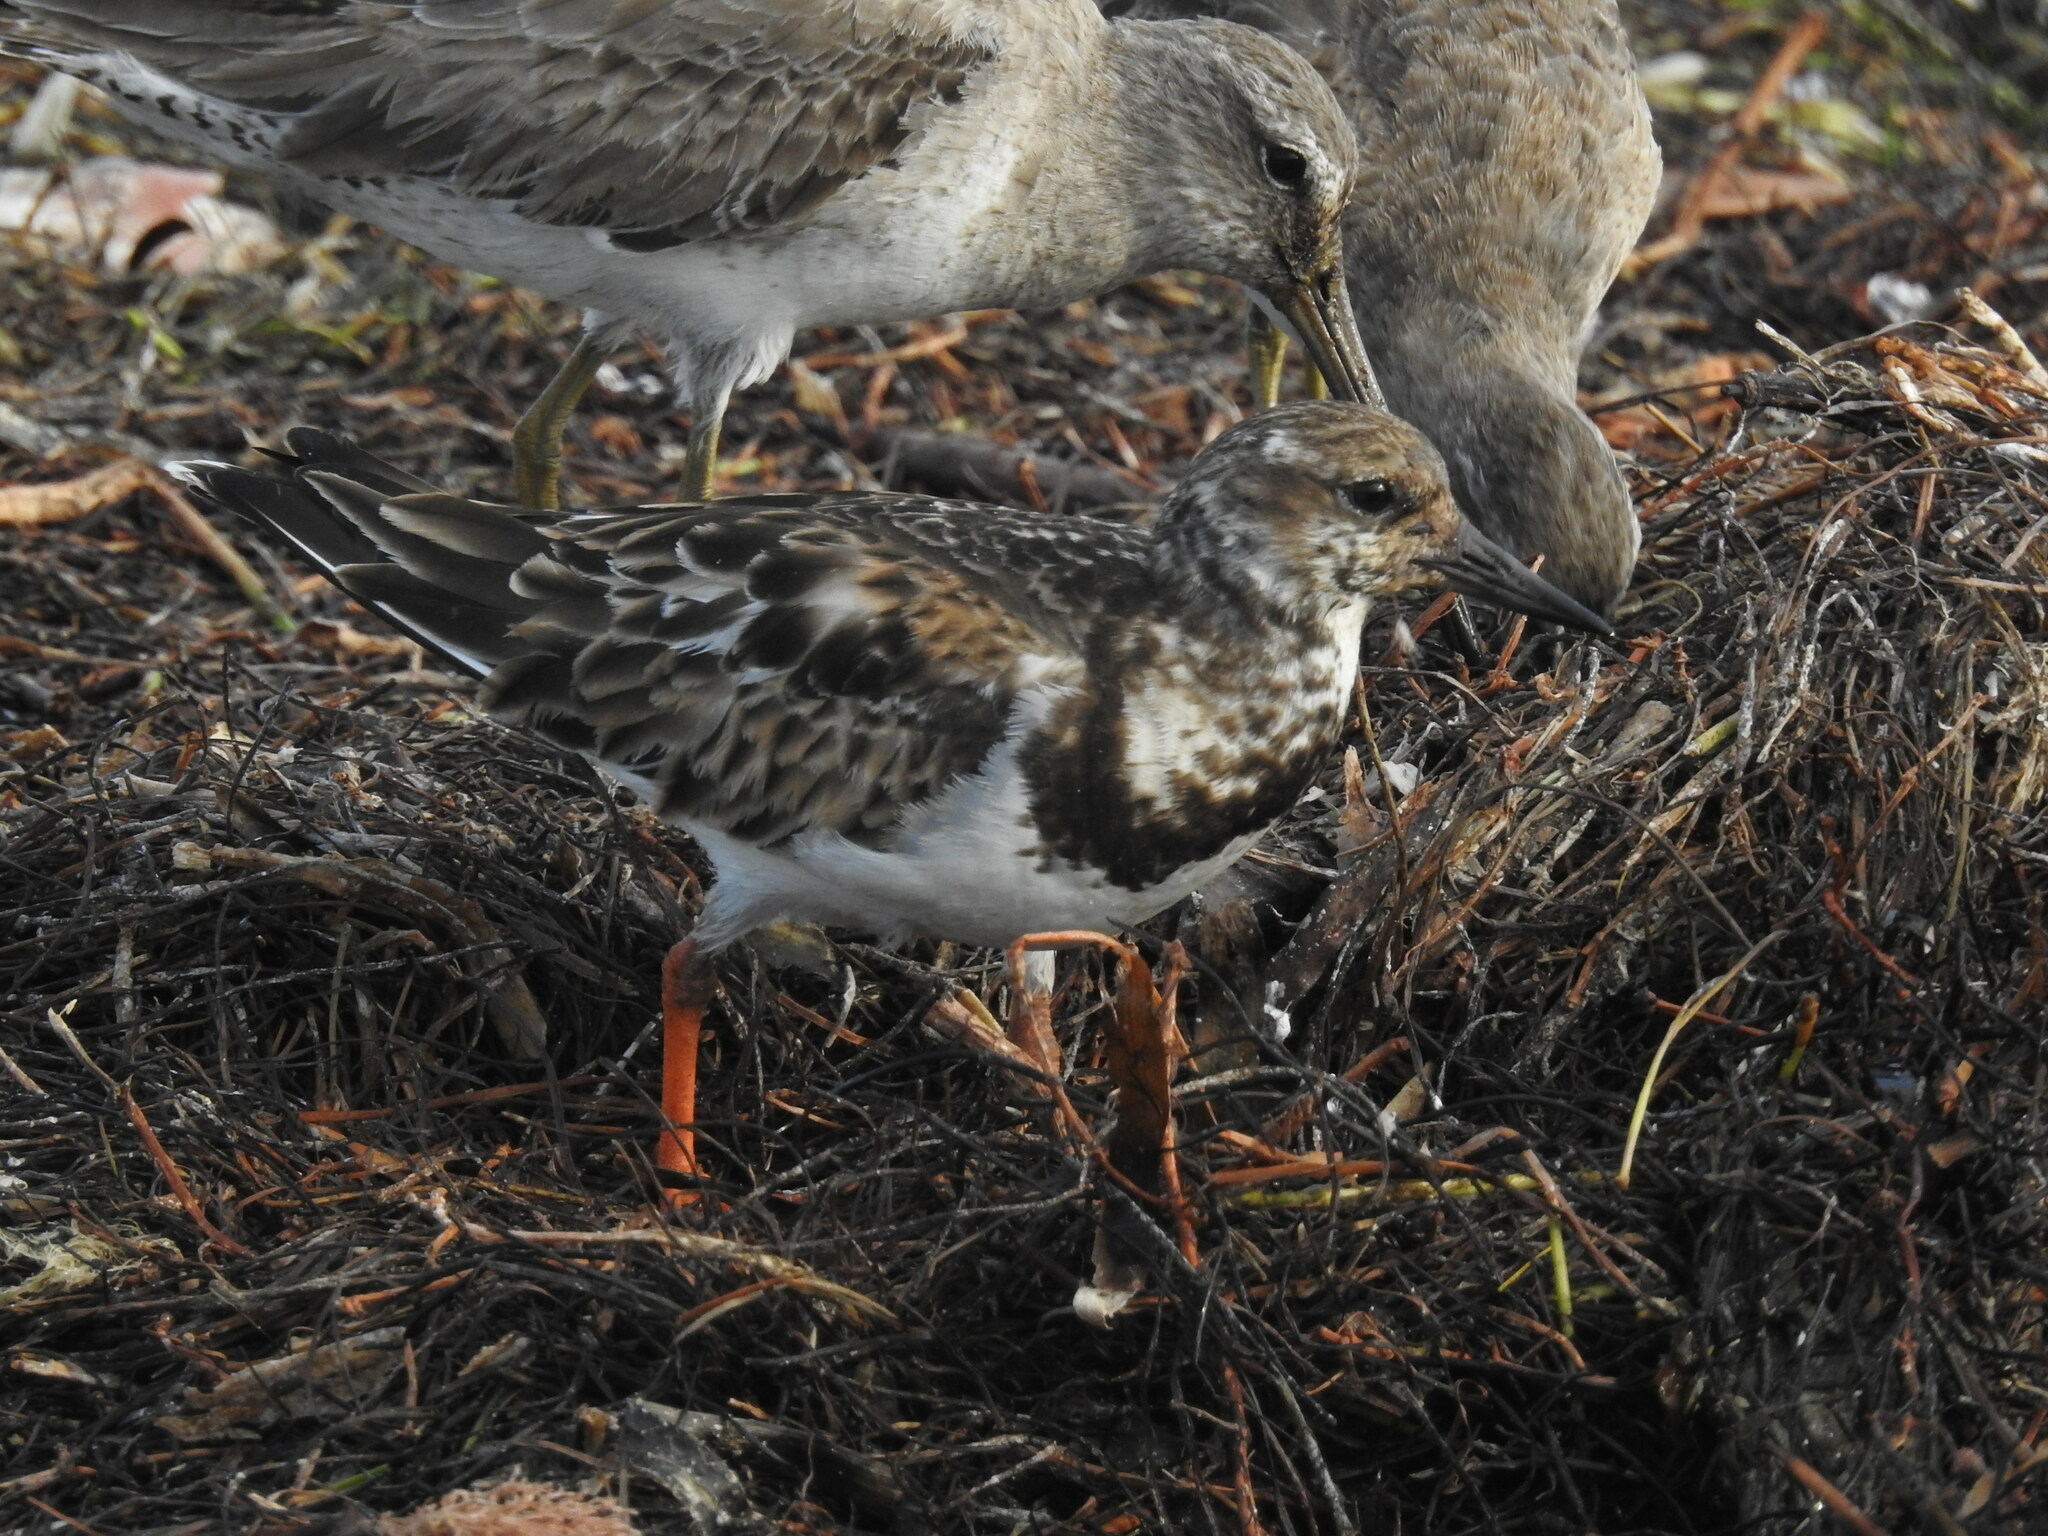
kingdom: Animalia
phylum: Chordata
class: Aves
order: Charadriiformes
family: Scolopacidae
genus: Arenaria
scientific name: Arenaria interpres
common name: Ruddy turnstone
